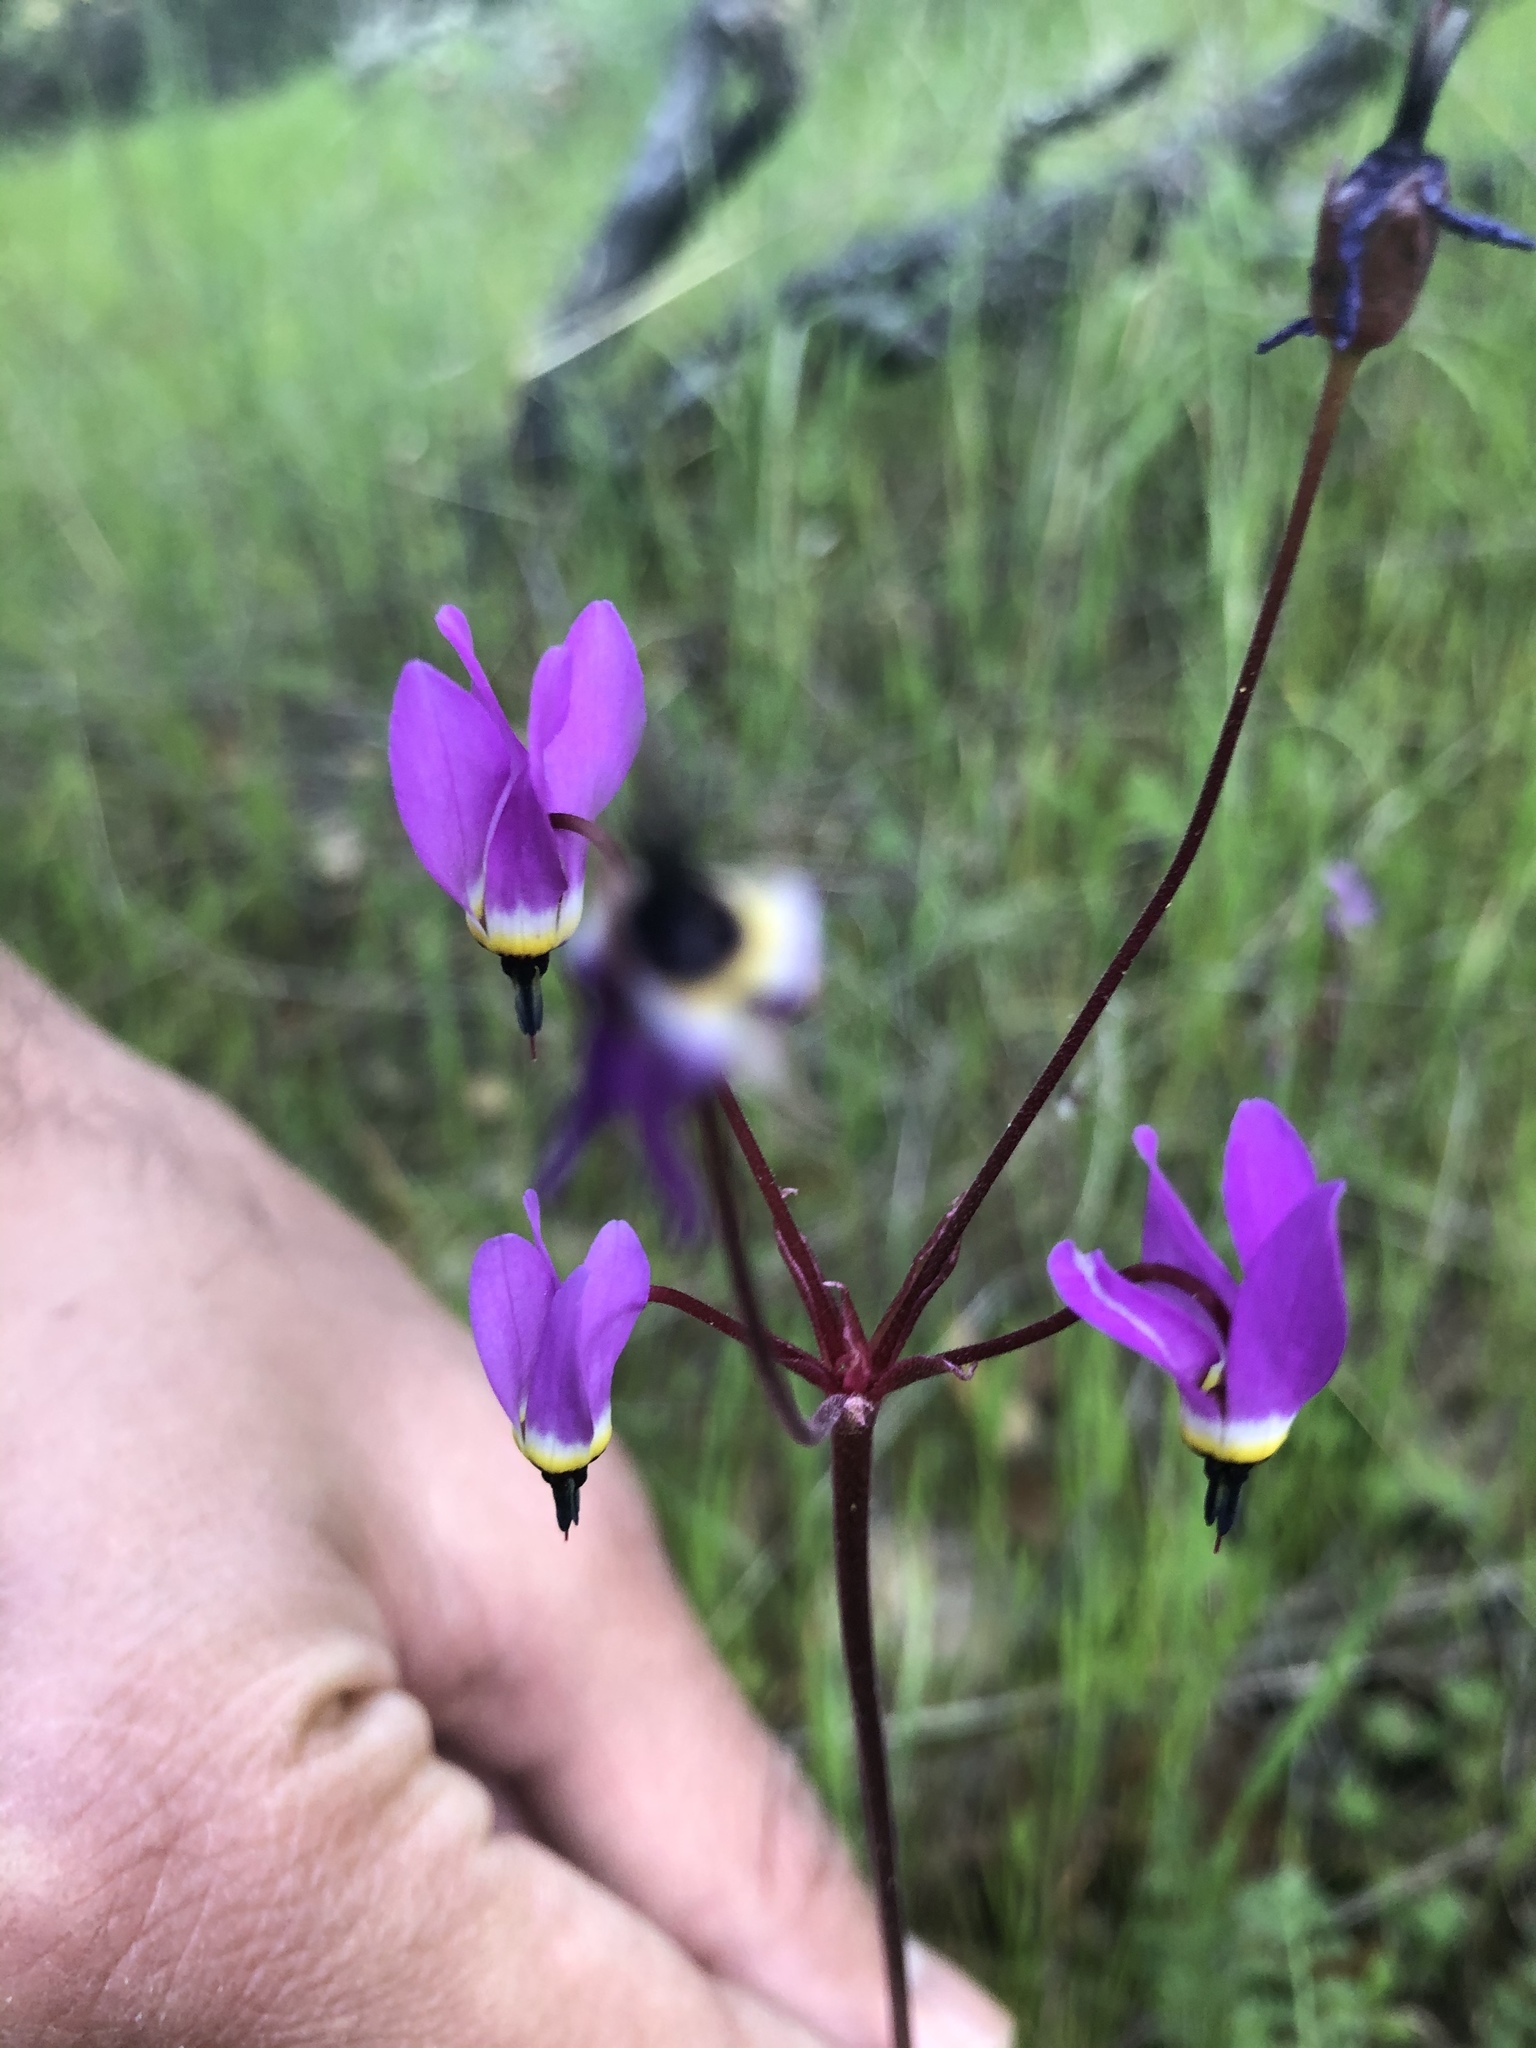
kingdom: Plantae
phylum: Tracheophyta
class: Magnoliopsida
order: Ericales
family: Primulaceae
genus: Dodecatheon
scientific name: Dodecatheon hendersonii
